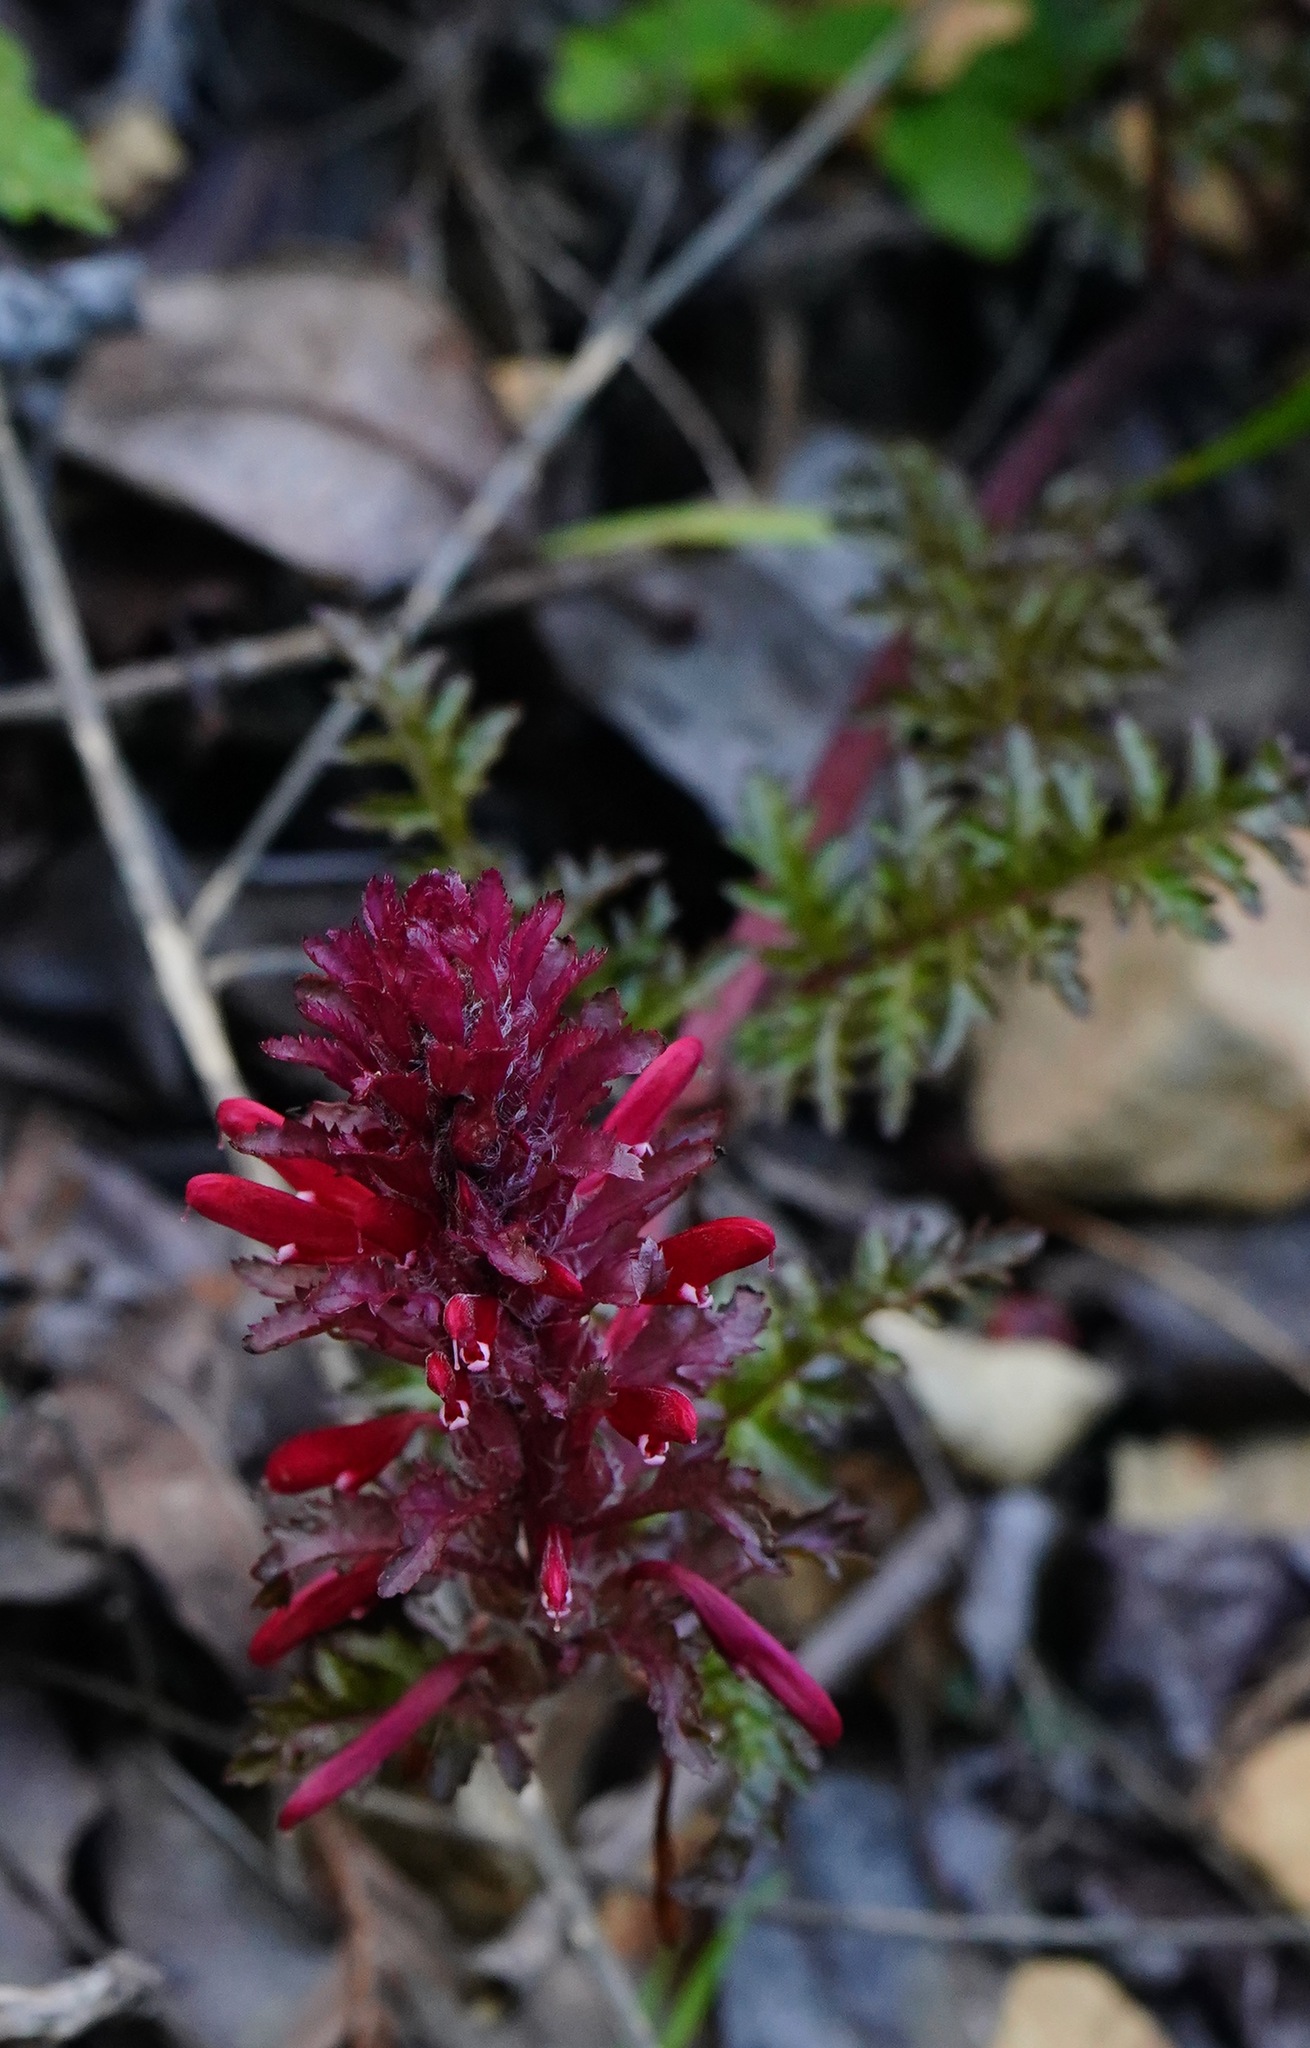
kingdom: Plantae
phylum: Tracheophyta
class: Magnoliopsida
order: Lamiales
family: Orobanchaceae
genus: Pedicularis
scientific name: Pedicularis densiflora
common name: Indian warrior
